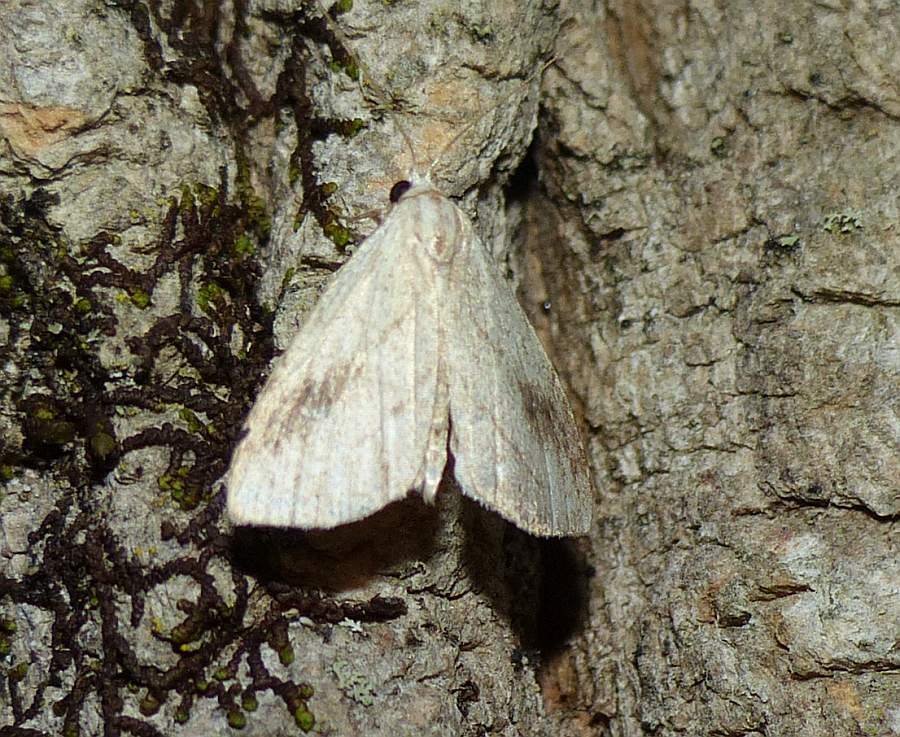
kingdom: Animalia
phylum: Arthropoda
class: Insecta
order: Lepidoptera
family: Erebidae
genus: Rivula
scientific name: Rivula propinqualis
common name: Spotted grass moth
